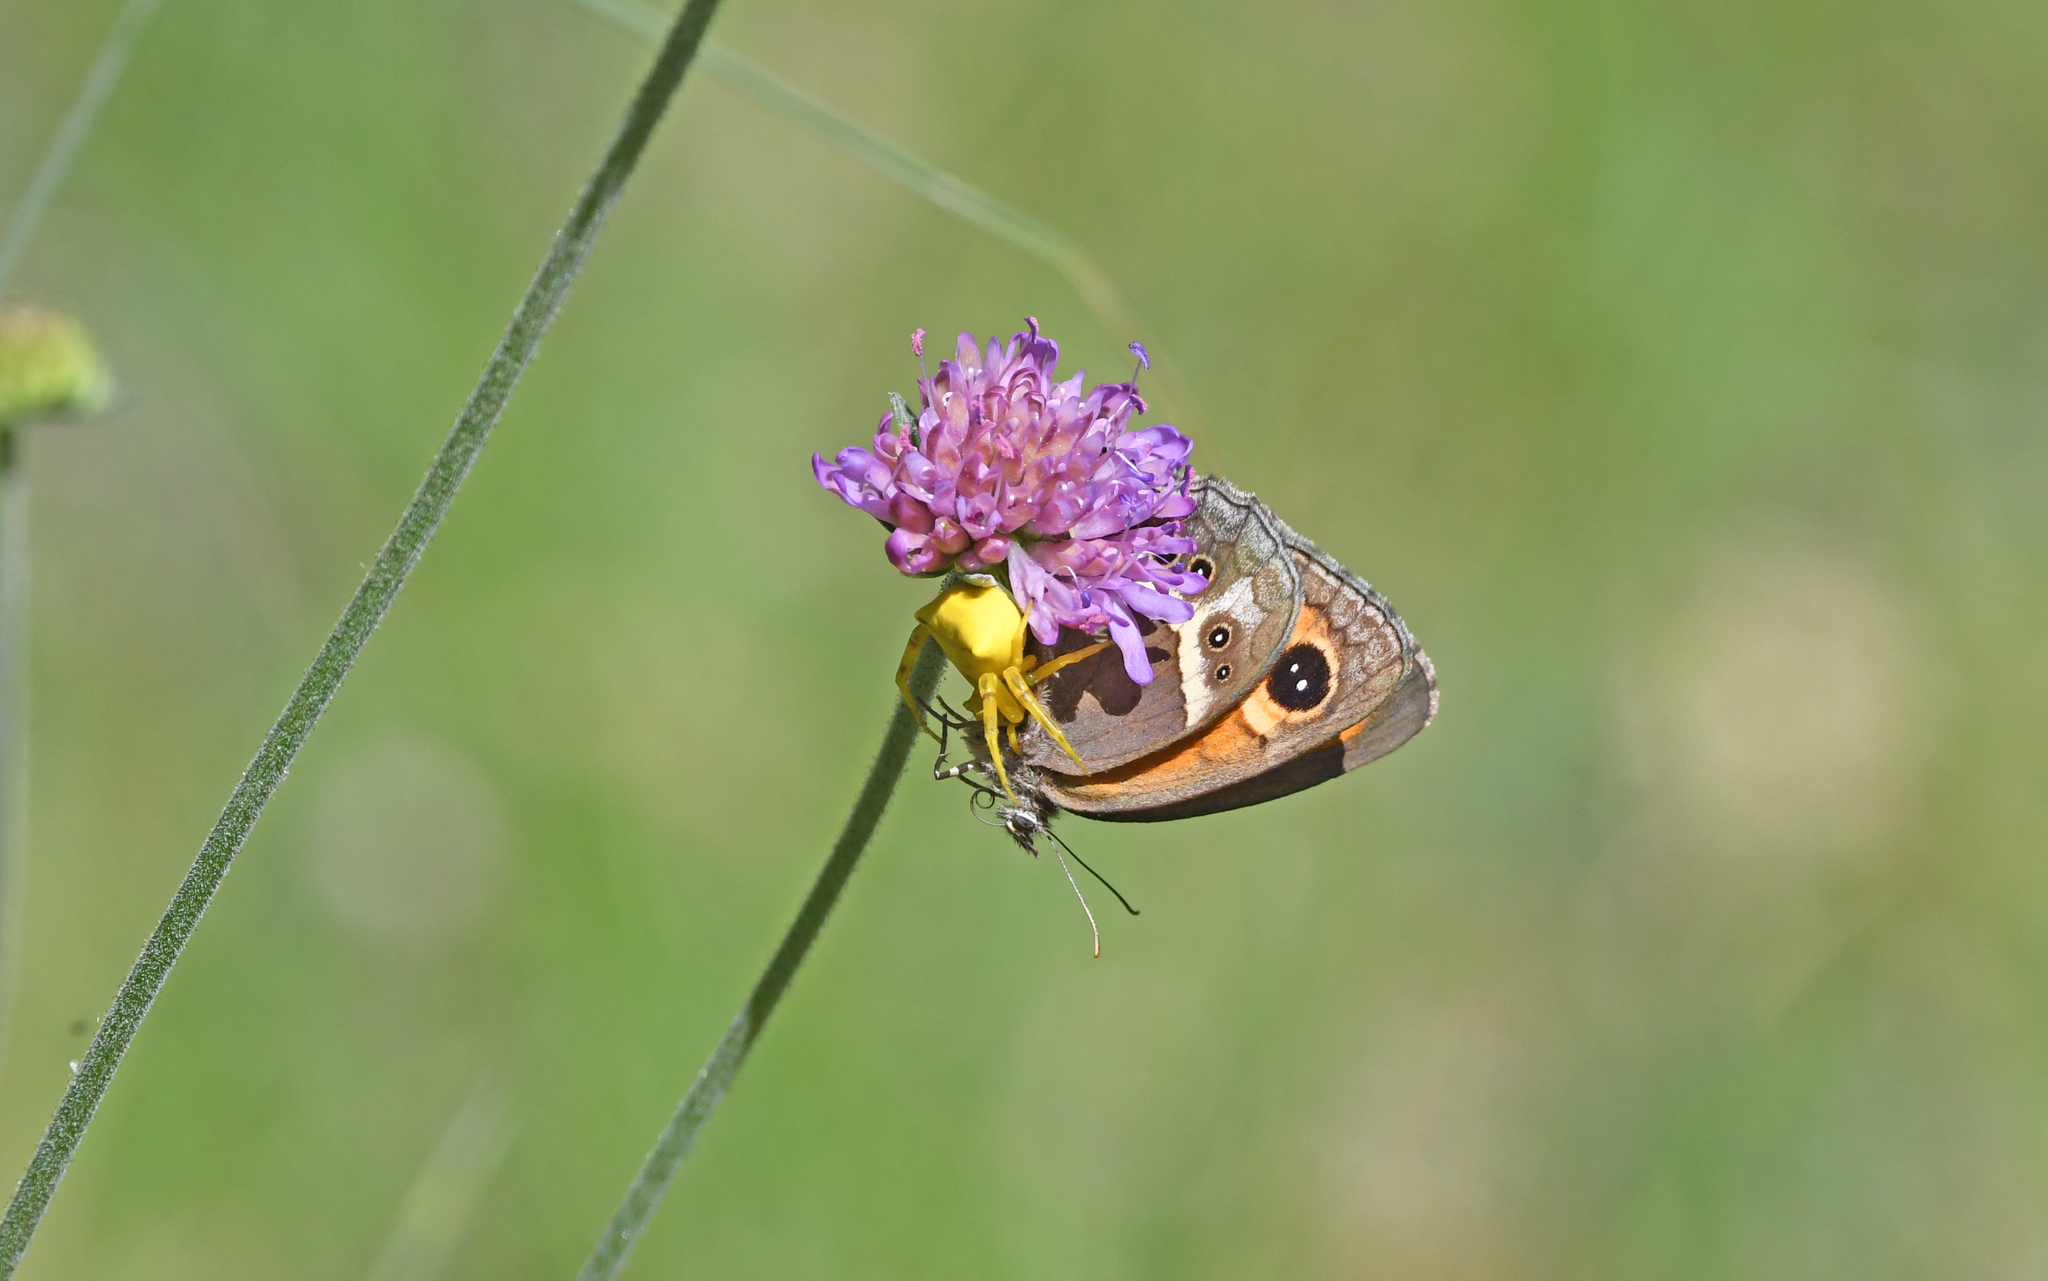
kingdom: Animalia
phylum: Arthropoda
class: Insecta
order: Lepidoptera
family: Nymphalidae
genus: Pyronia
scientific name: Pyronia bathseba
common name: Spanish gatekeeper
